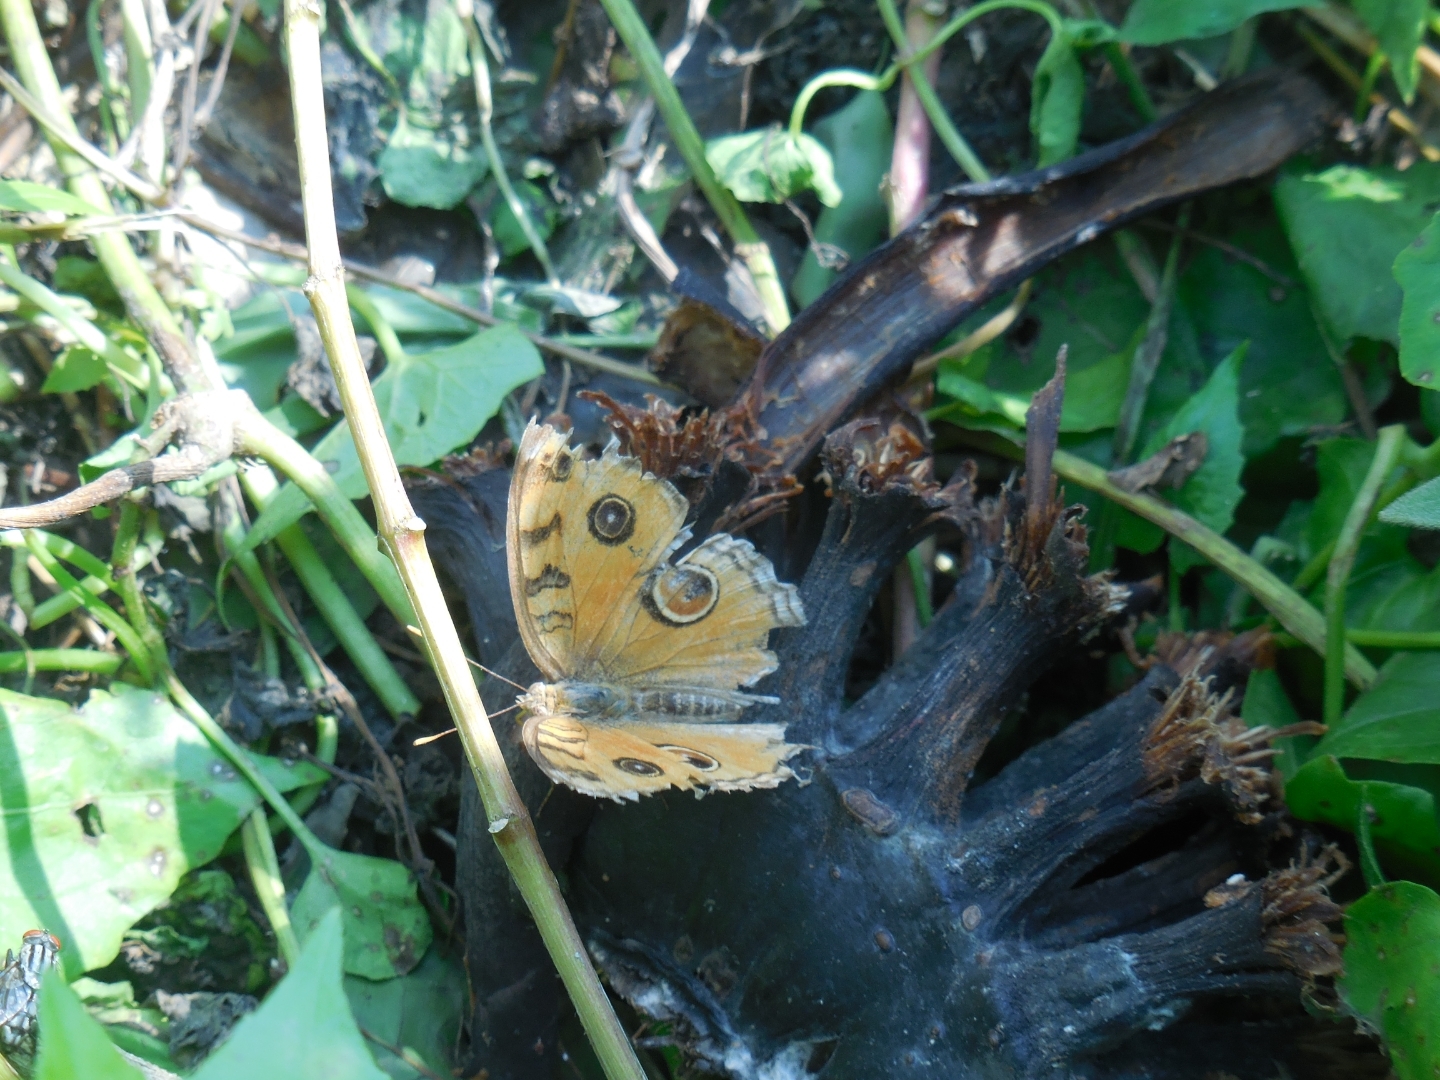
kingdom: Animalia
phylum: Arthropoda
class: Insecta
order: Lepidoptera
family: Nymphalidae
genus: Junonia
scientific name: Junonia almana
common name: Peacock pansy
